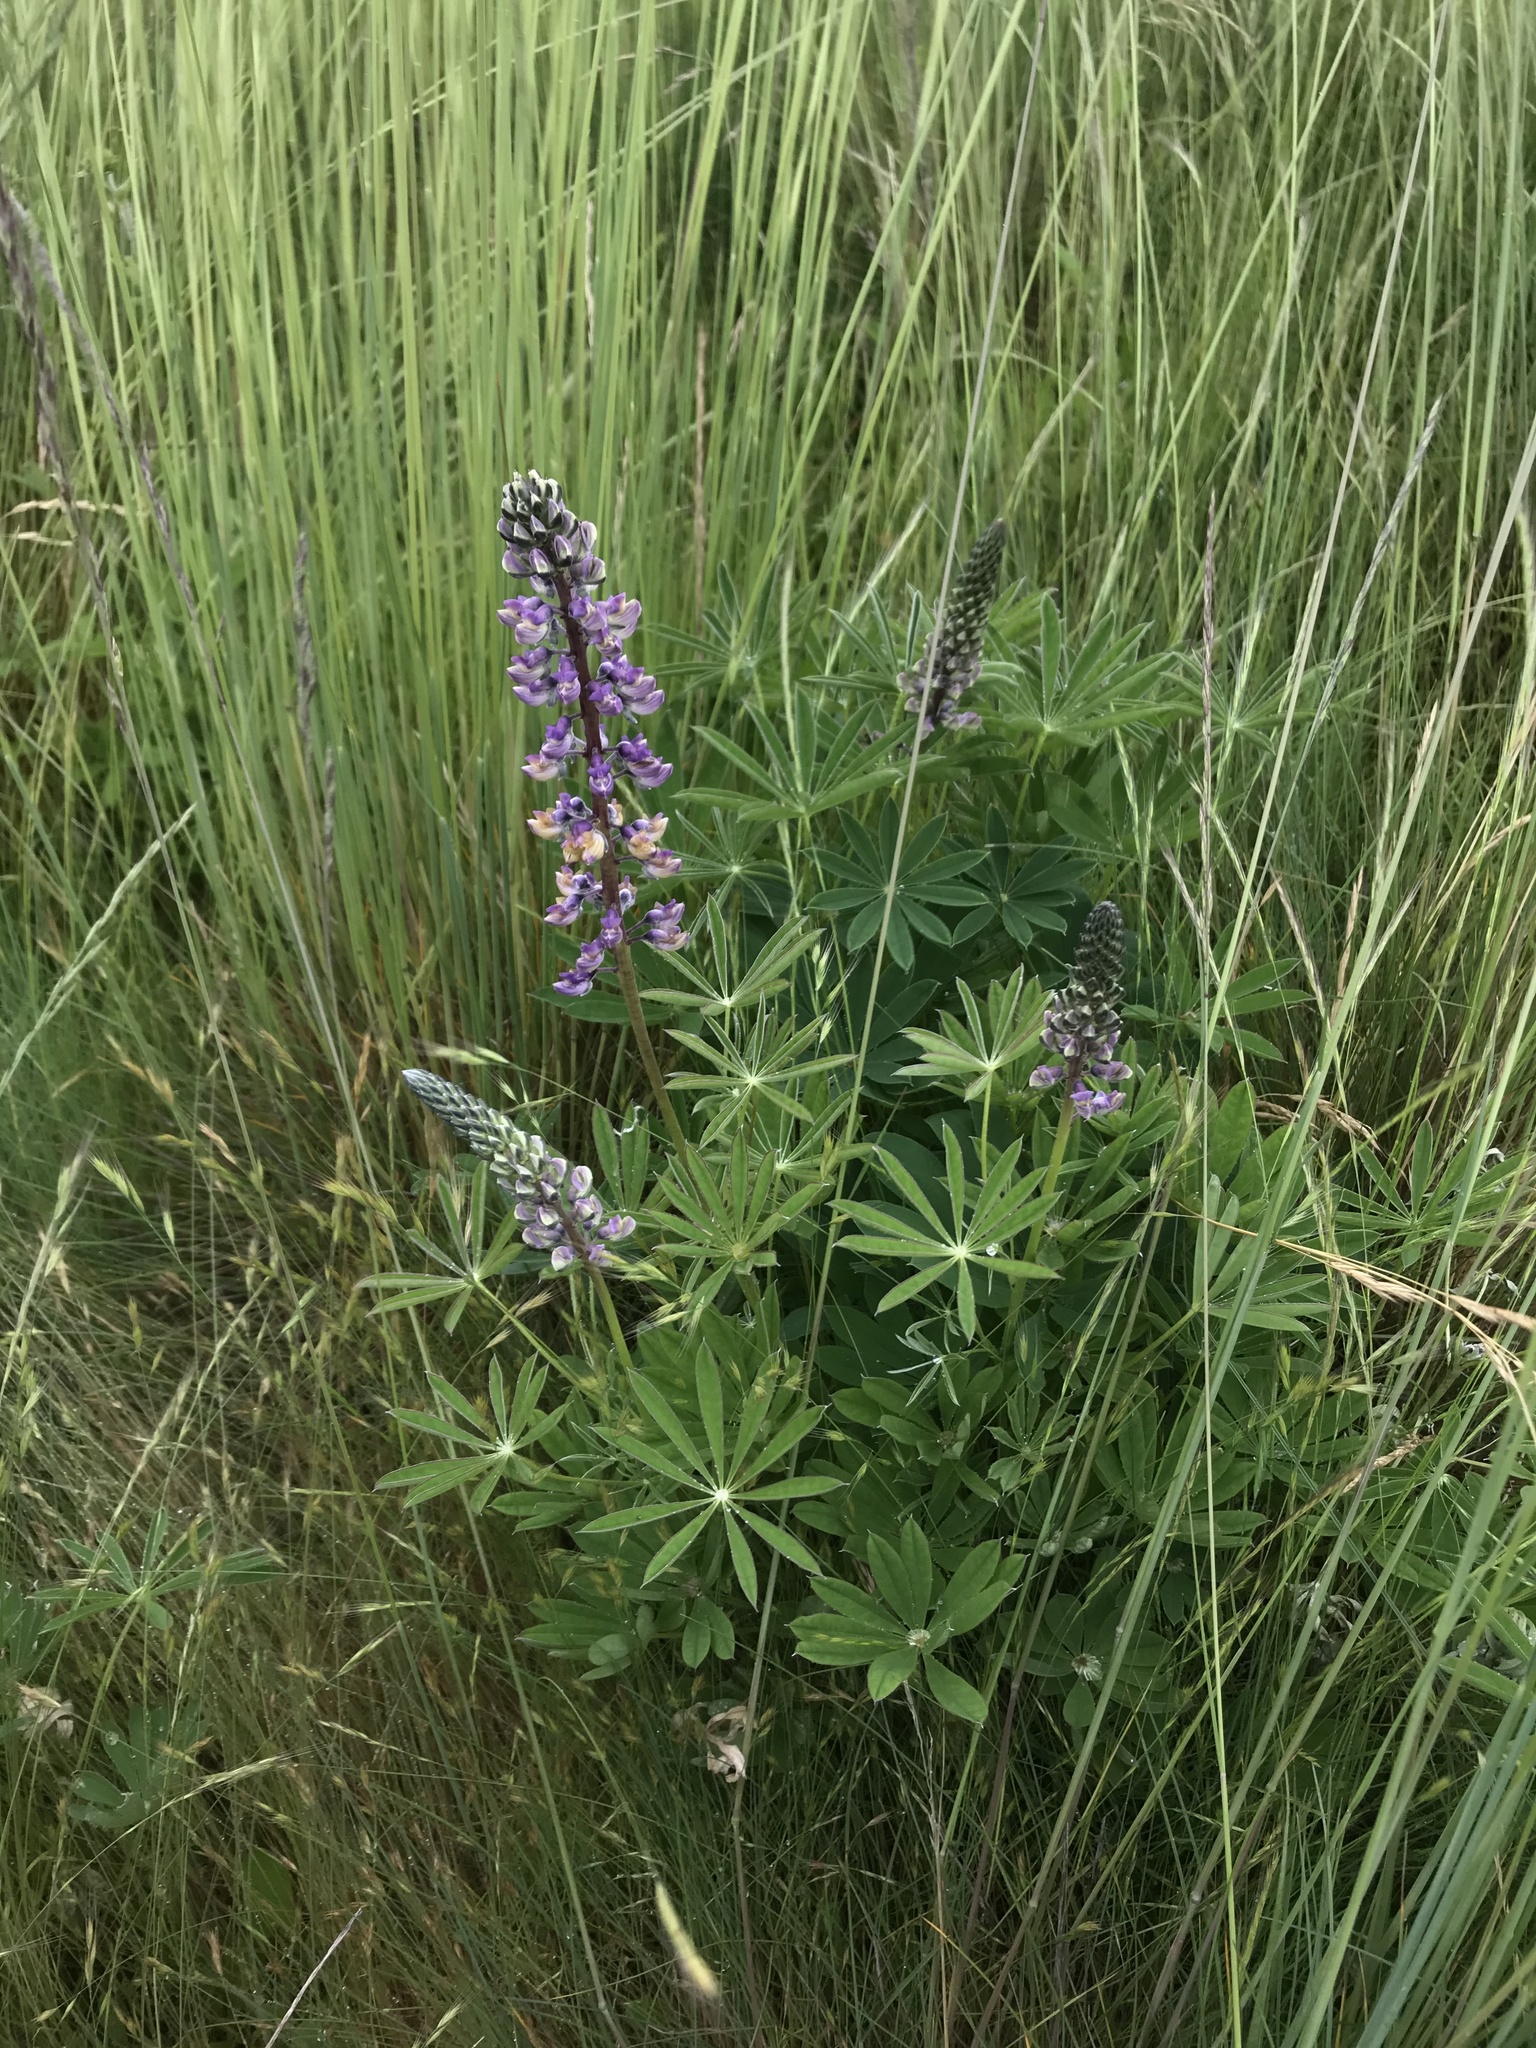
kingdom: Plantae
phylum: Tracheophyta
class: Magnoliopsida
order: Fabales
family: Fabaceae
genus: Lupinus
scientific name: Lupinus oreganus
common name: Kincaid's lupine
